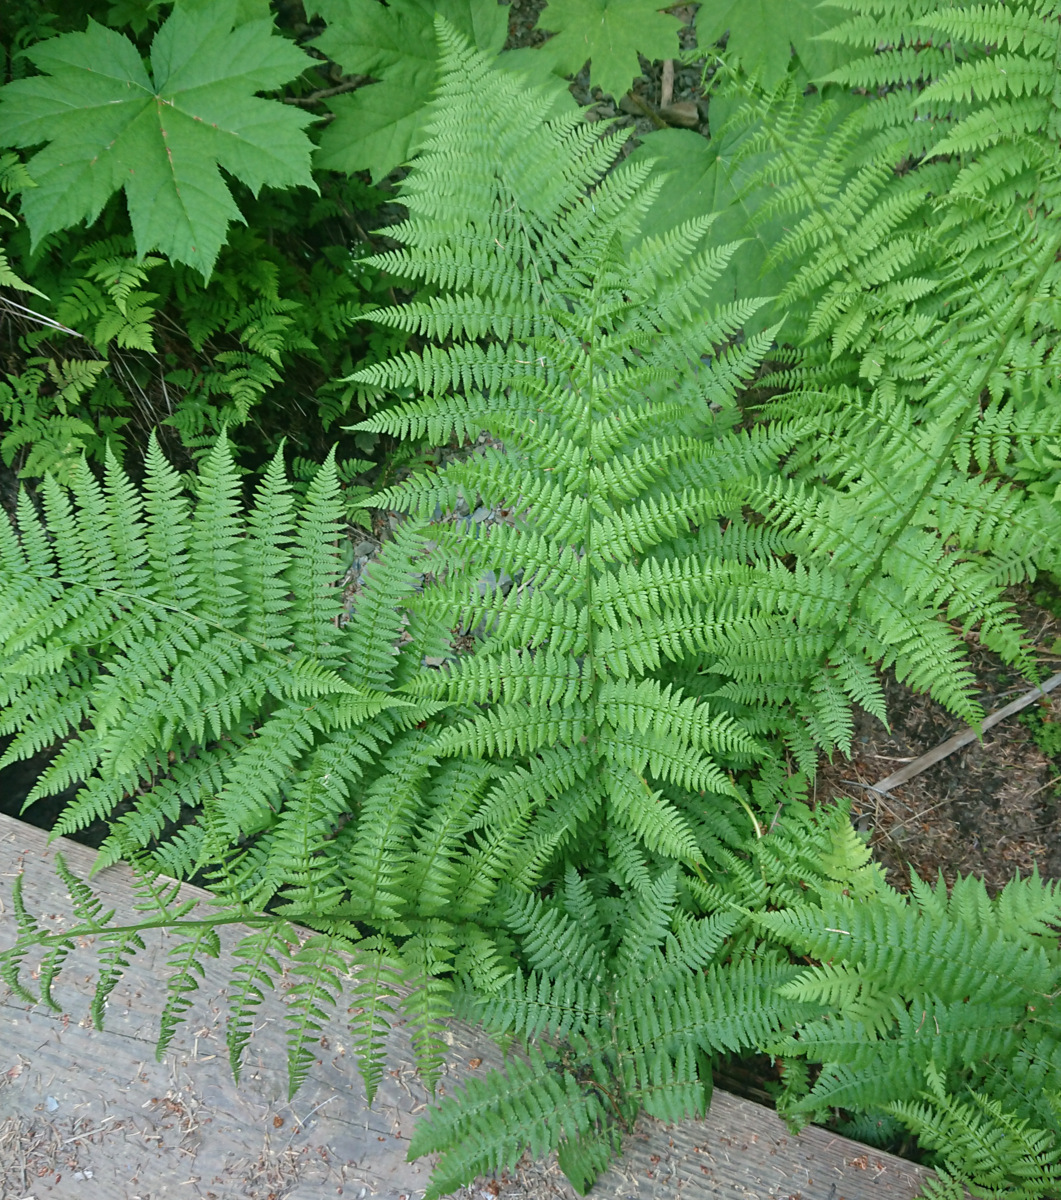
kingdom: Plantae
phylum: Tracheophyta
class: Polypodiopsida
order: Polypodiales
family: Athyriaceae
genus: Athyrium
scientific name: Athyrium filix-femina
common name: Lady fern
